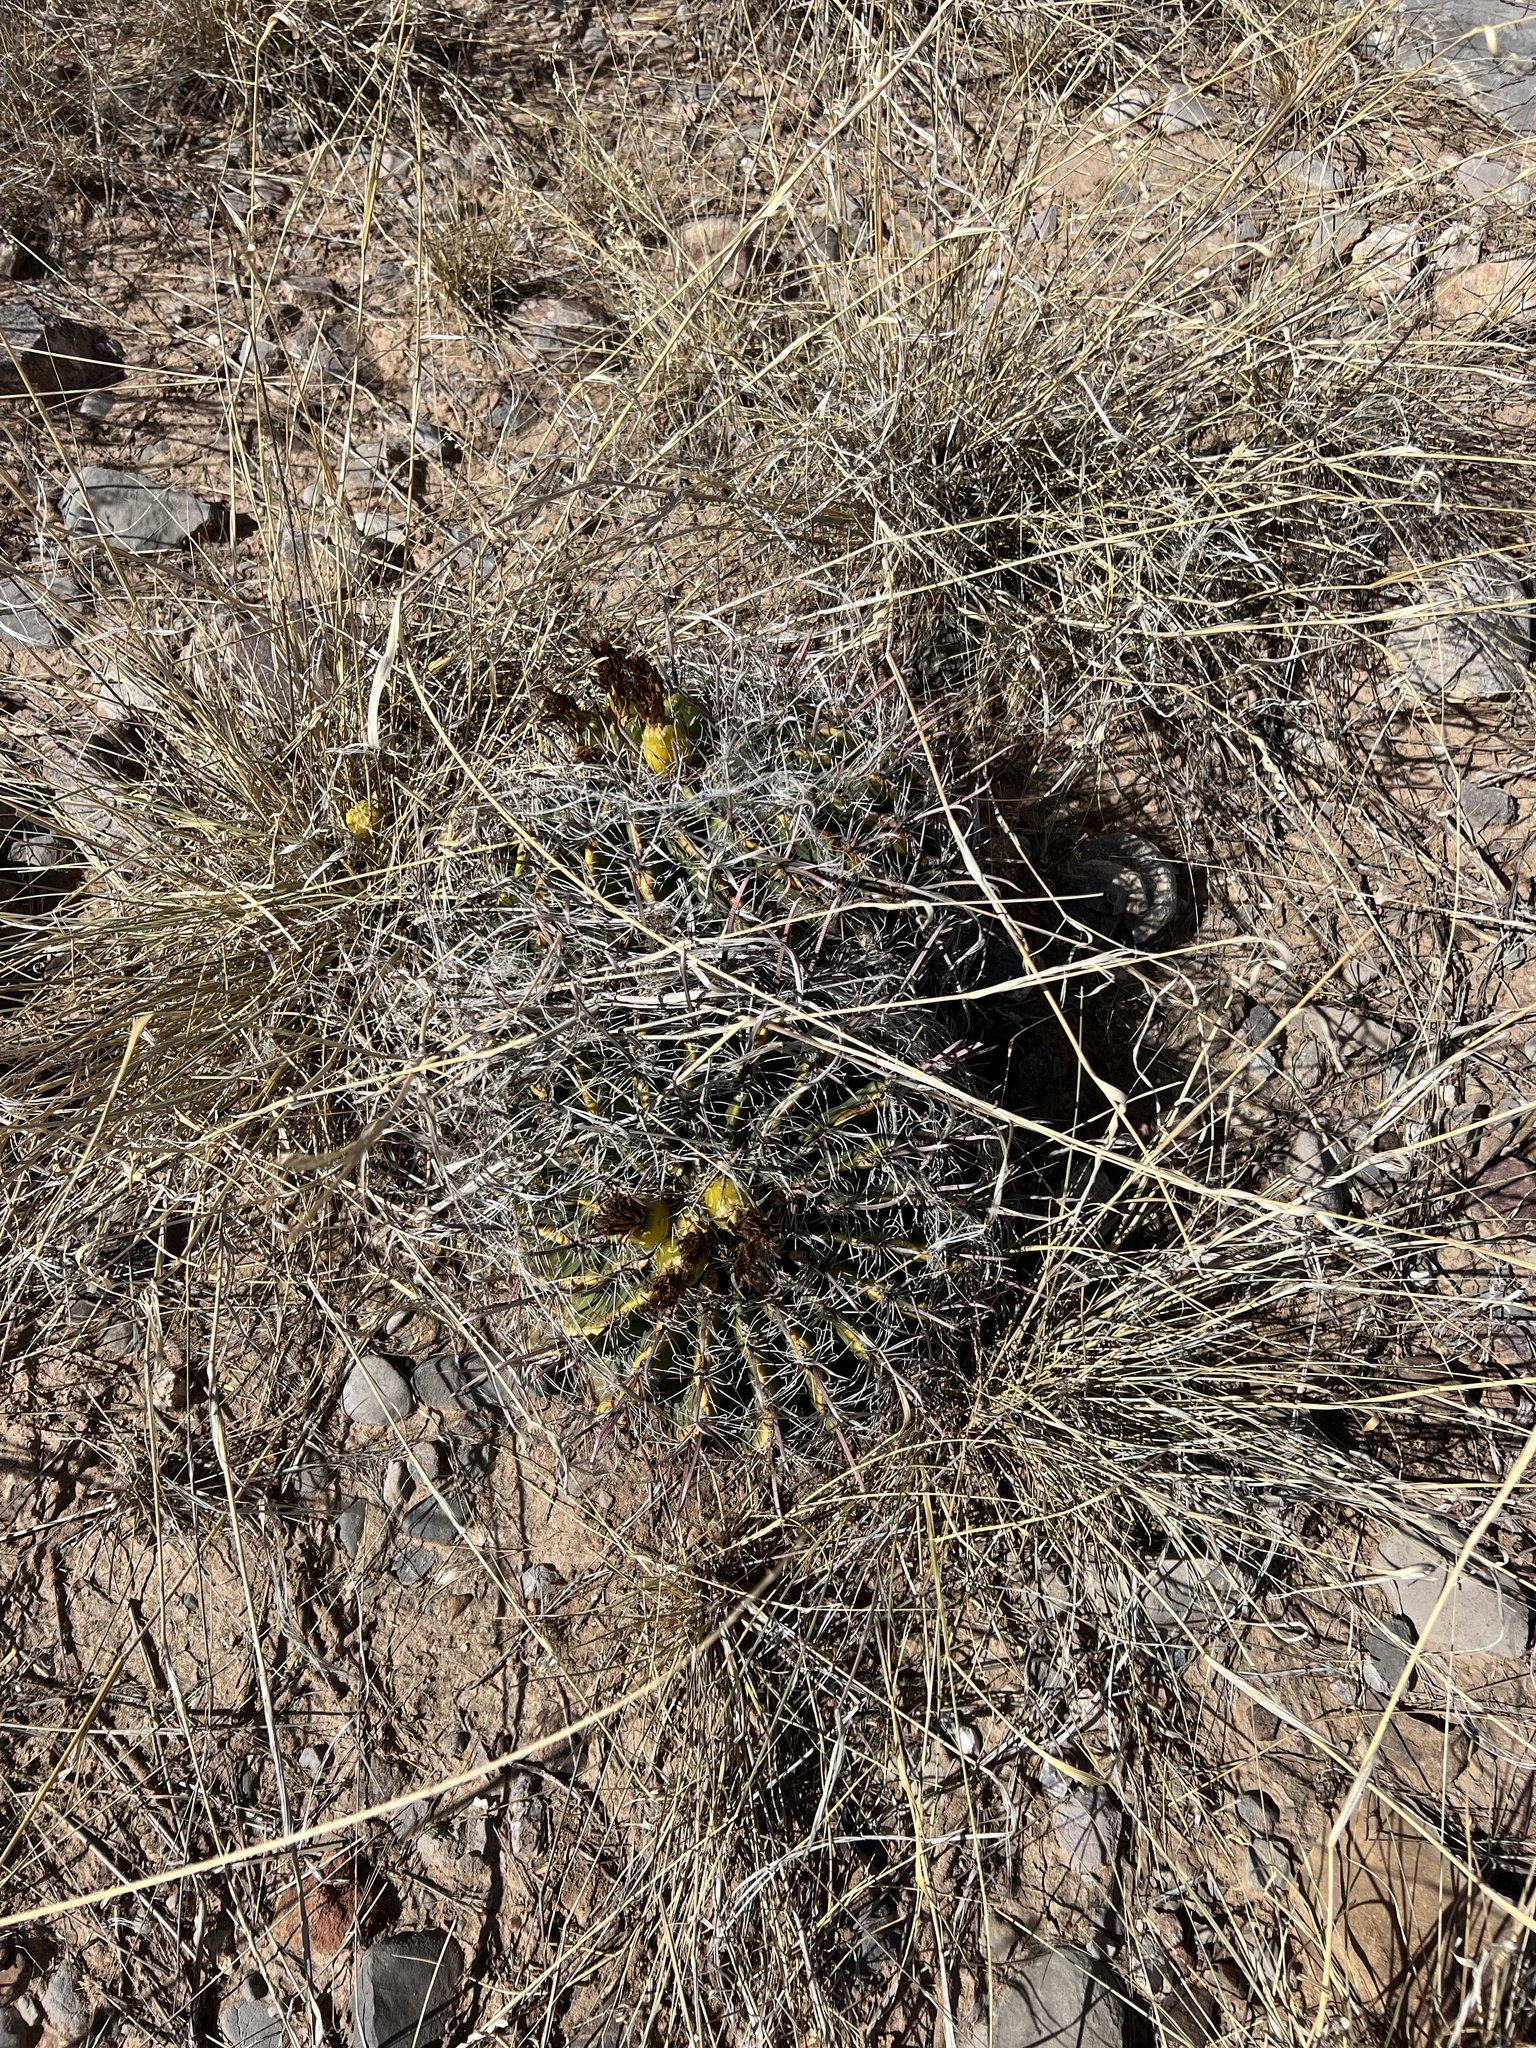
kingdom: Plantae
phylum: Tracheophyta
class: Magnoliopsida
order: Caryophyllales
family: Cactaceae
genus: Ferocactus
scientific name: Ferocactus wislizeni
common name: Candy barrel cactus
